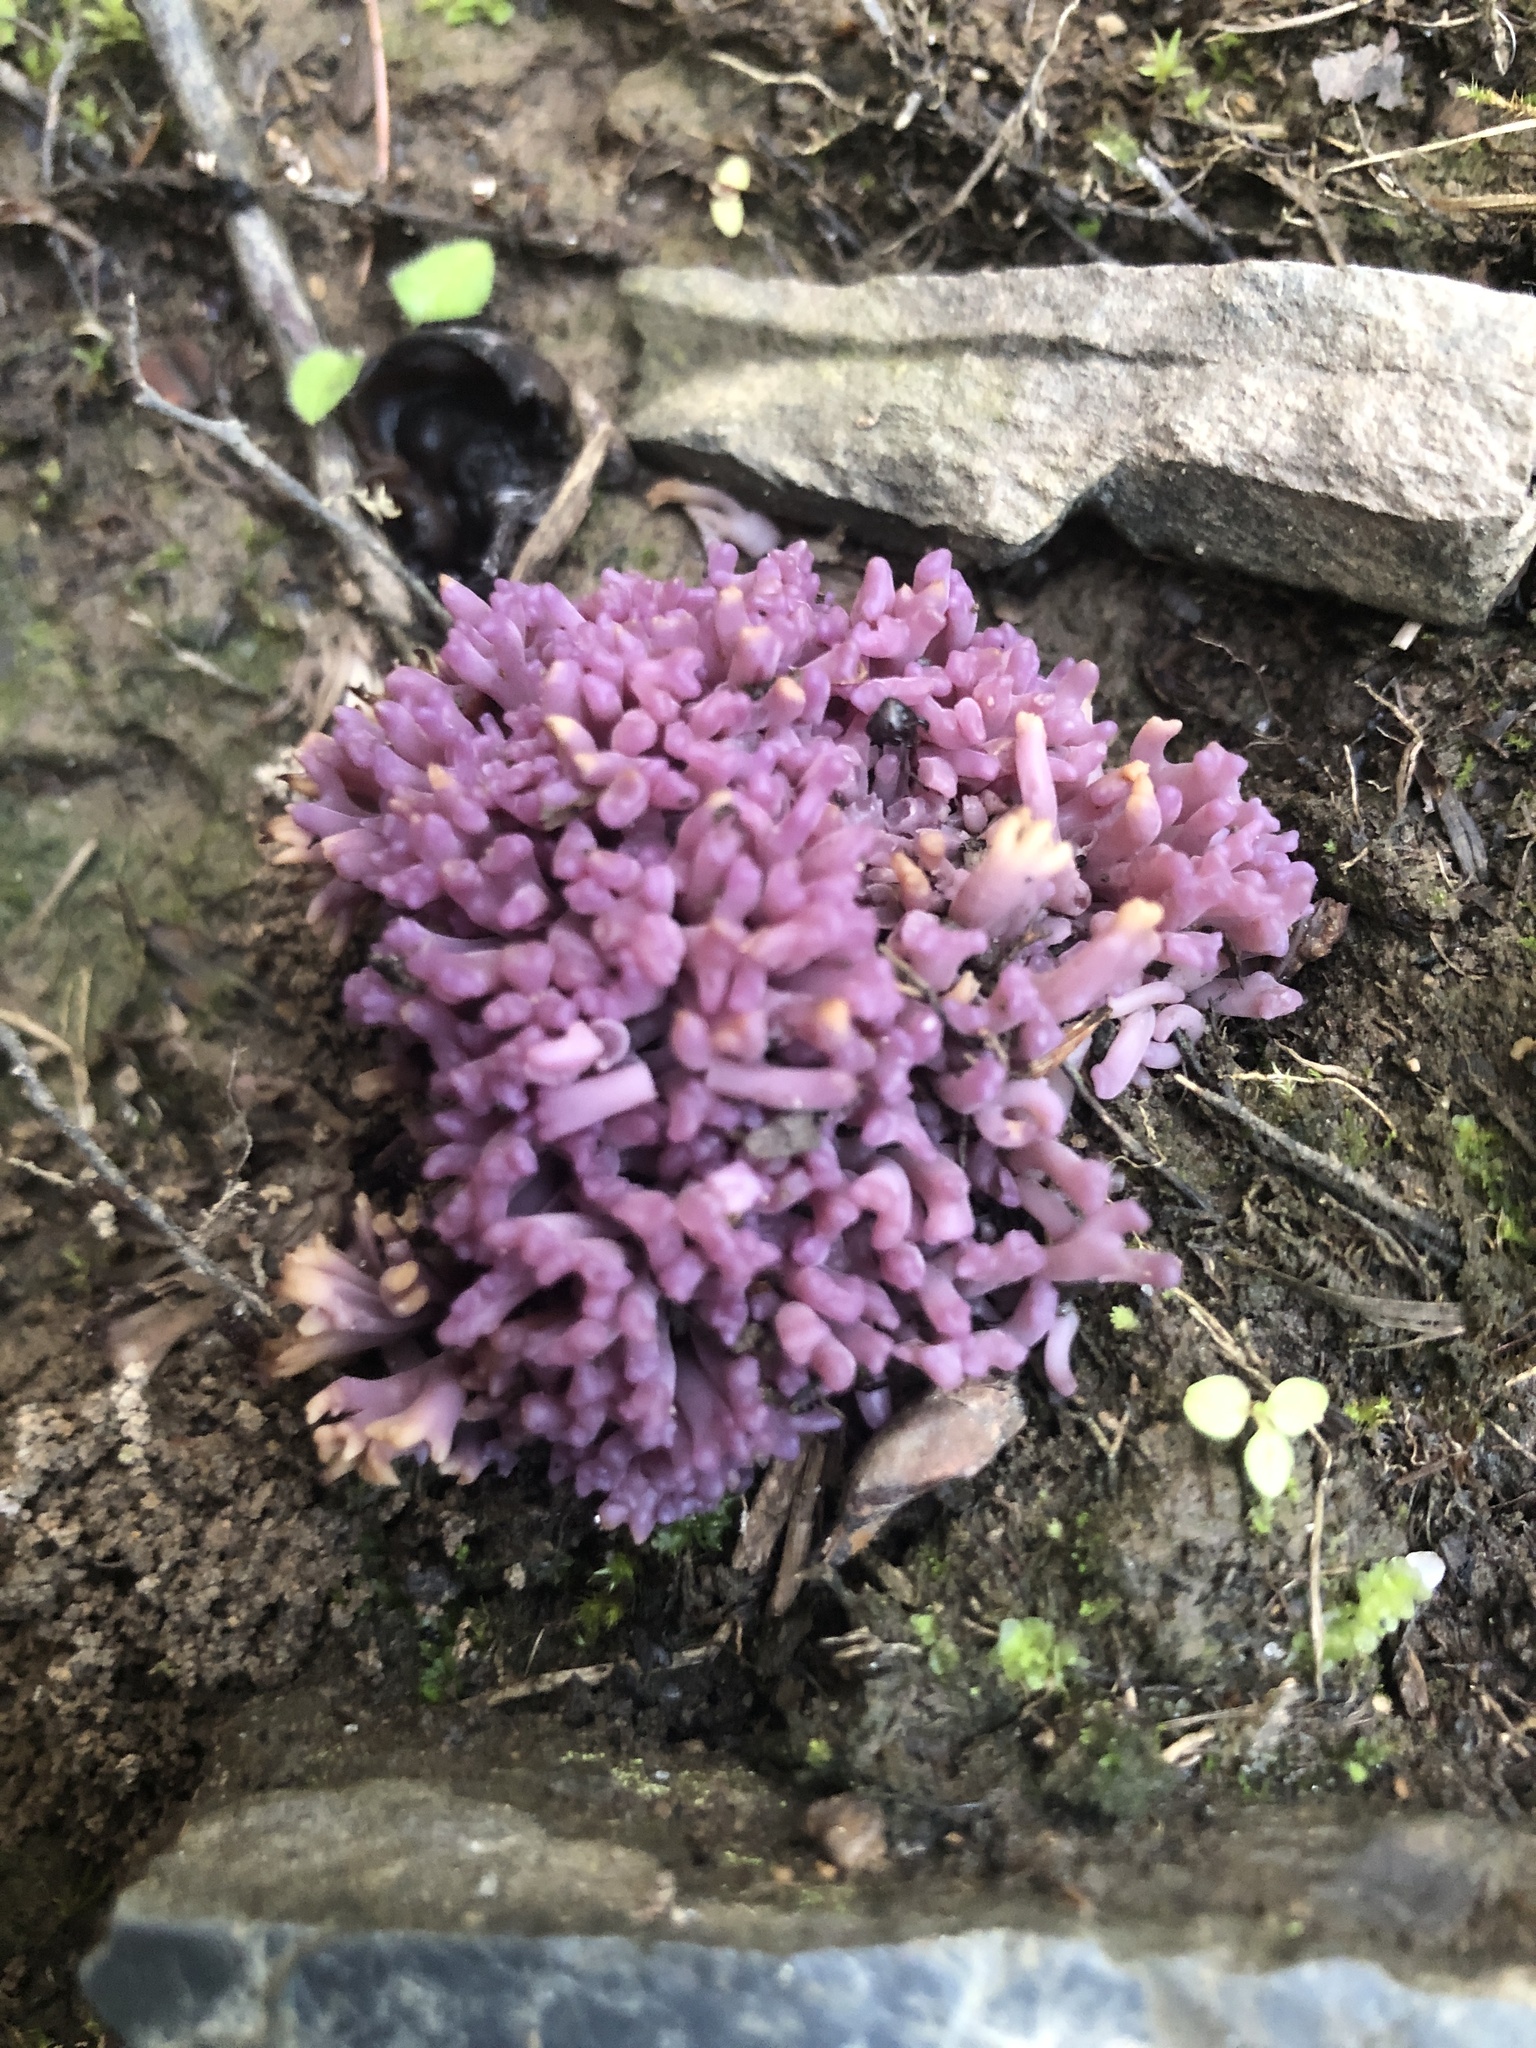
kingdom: Fungi
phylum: Basidiomycota
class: Agaricomycetes
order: Agaricales
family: Clavariaceae
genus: Clavaria
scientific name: Clavaria zollingeri
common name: Violet coral
